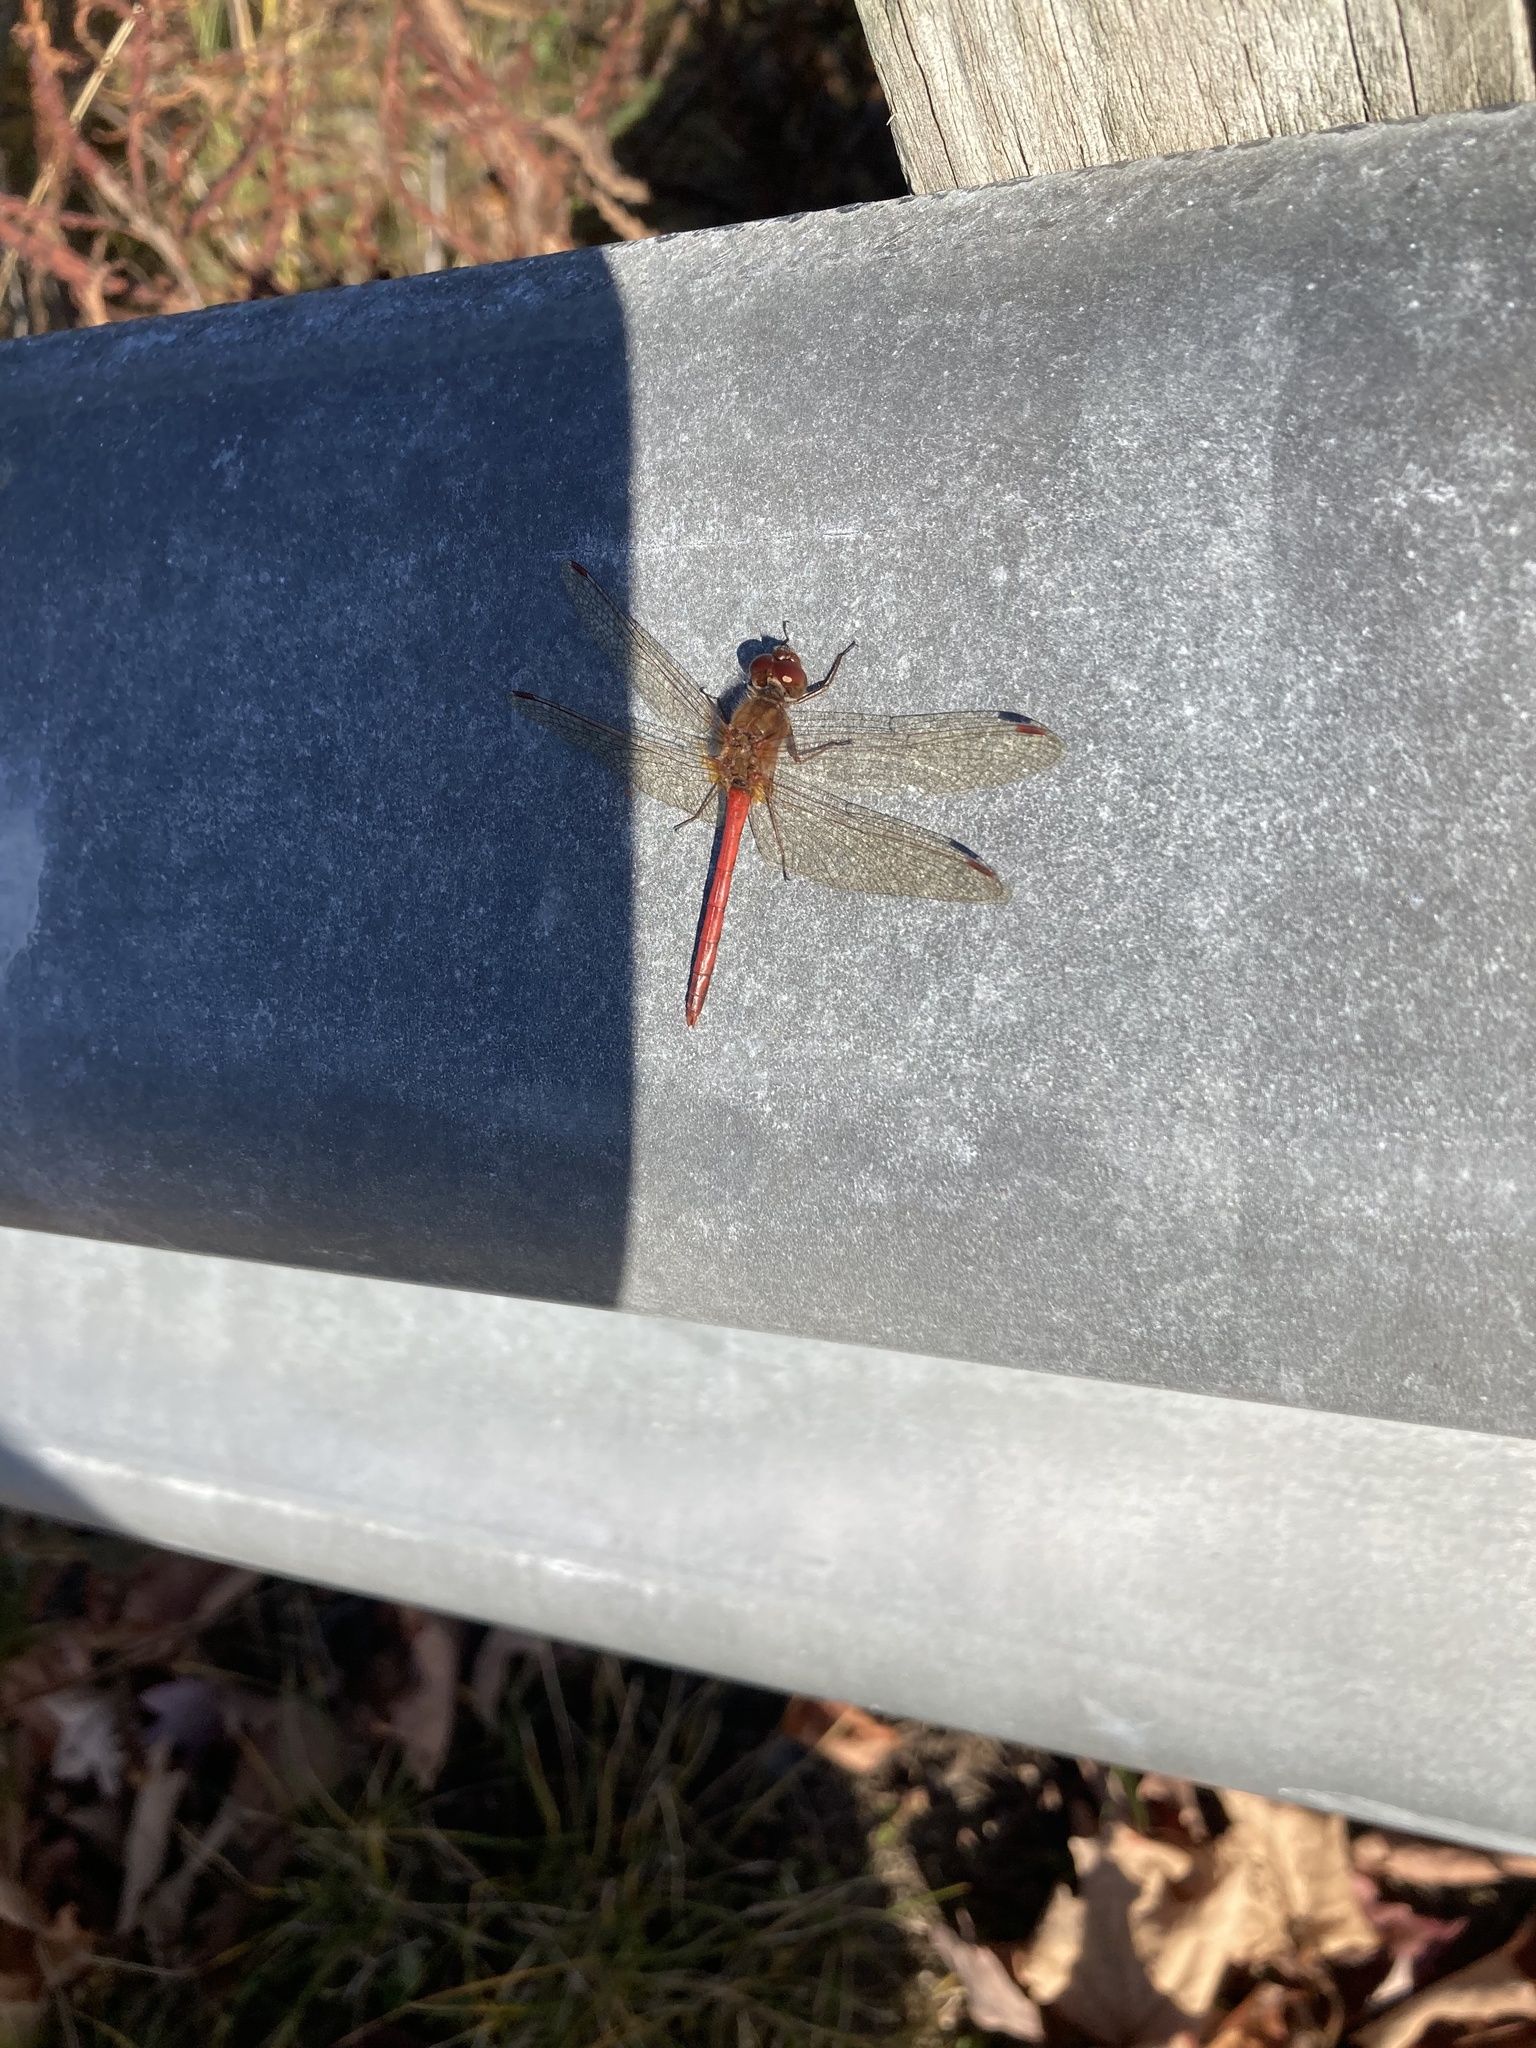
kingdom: Animalia
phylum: Arthropoda
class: Insecta
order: Odonata
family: Libellulidae
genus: Sympetrum
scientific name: Sympetrum vicinum
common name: Autumn meadowhawk
